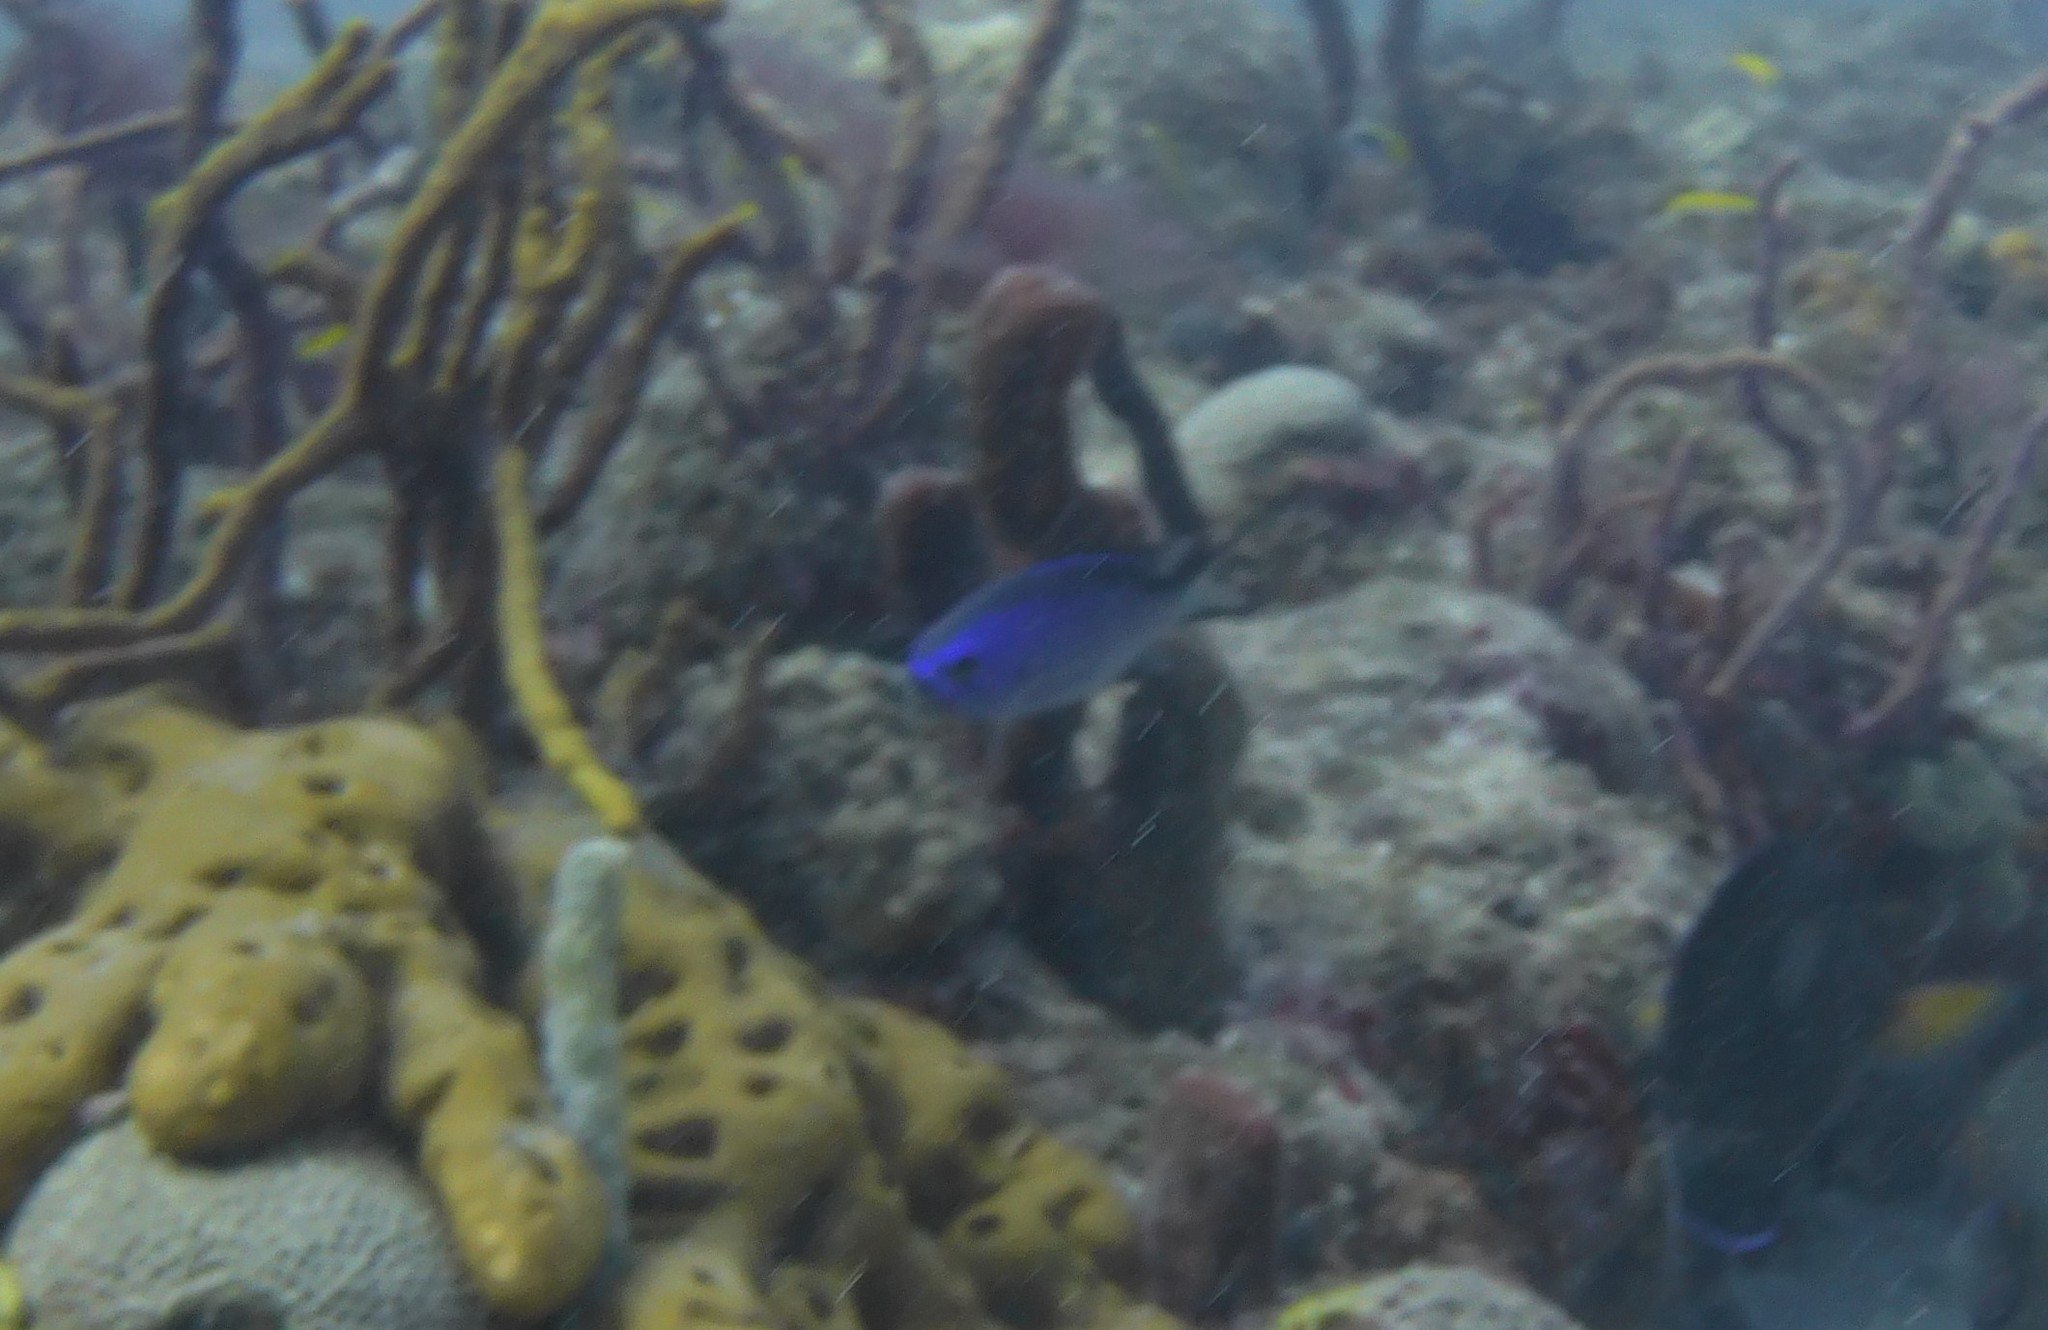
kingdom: Animalia
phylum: Chordata
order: Perciformes
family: Pomacentridae
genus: Chromis
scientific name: Chromis cyanea
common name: Blue chromis
